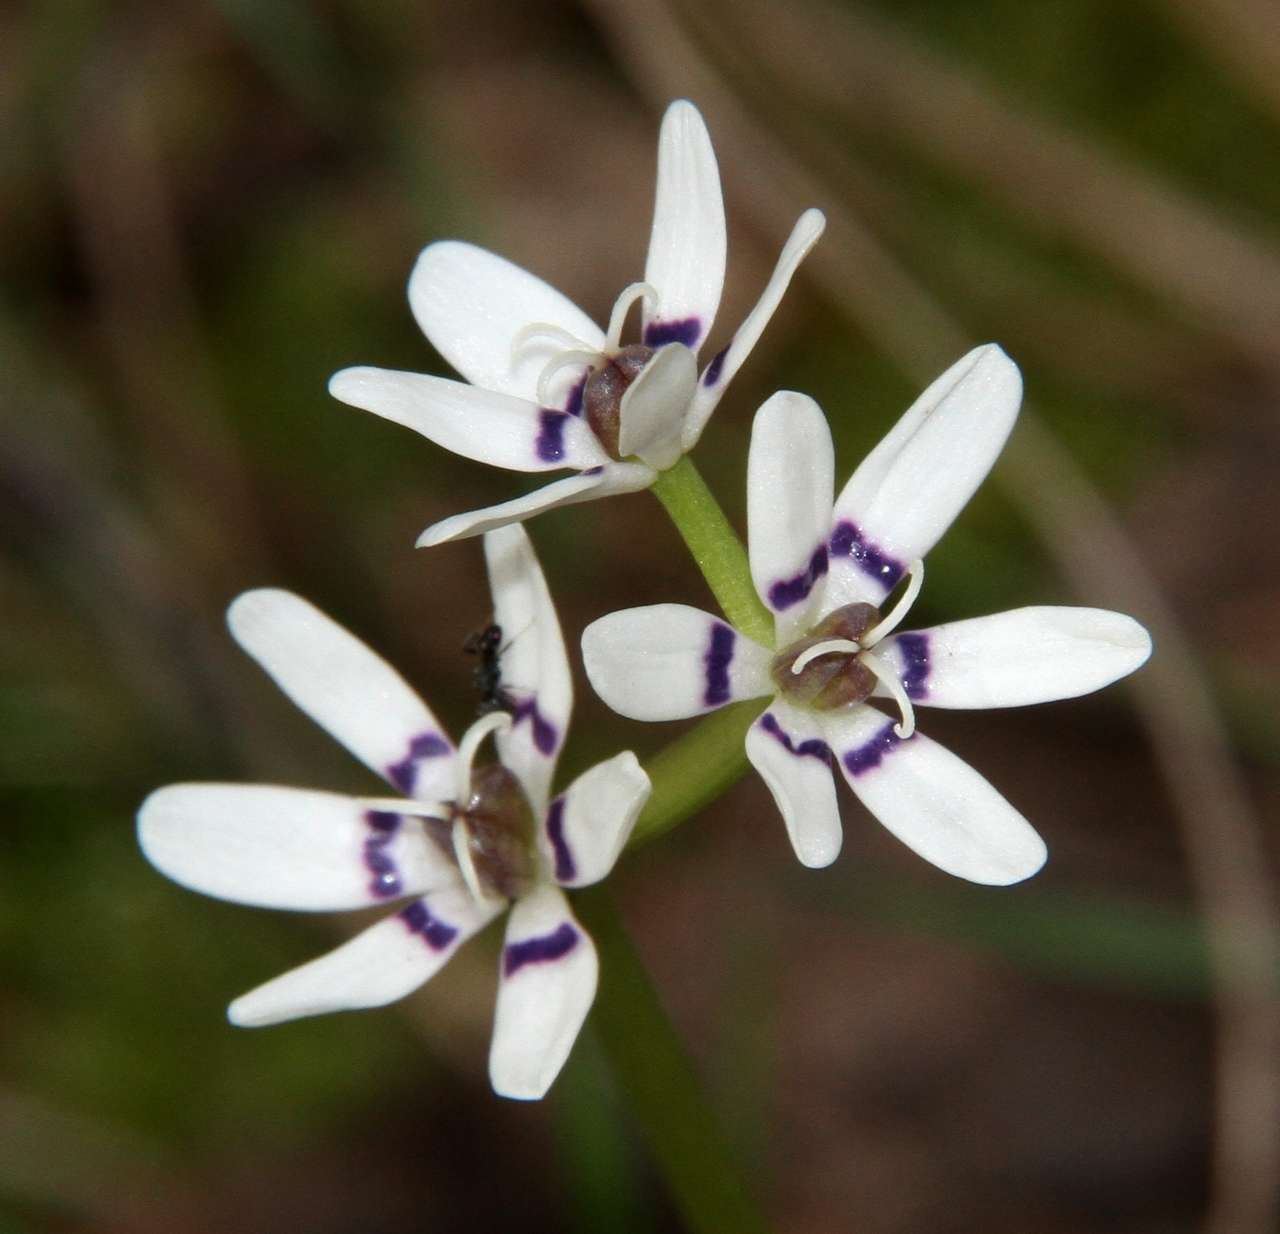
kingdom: Plantae
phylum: Tracheophyta
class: Liliopsida
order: Liliales
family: Colchicaceae
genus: Wurmbea
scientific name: Wurmbea dioica
